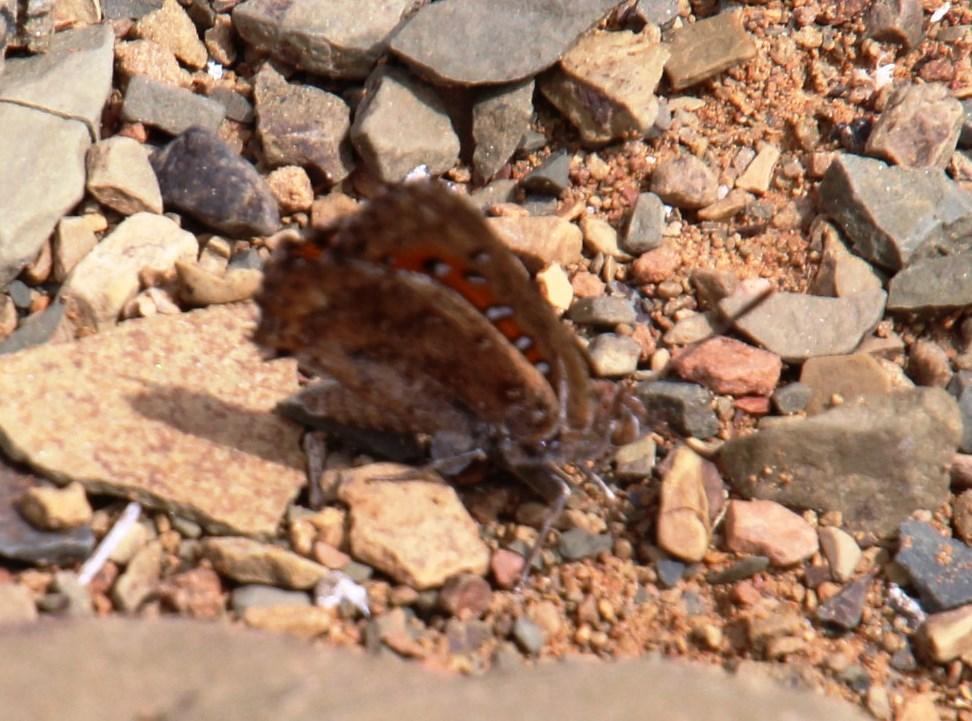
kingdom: Animalia
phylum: Arthropoda
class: Insecta
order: Lepidoptera
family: Lycaenidae
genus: Aloeides
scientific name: Aloeides pierus
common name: Dull copper
